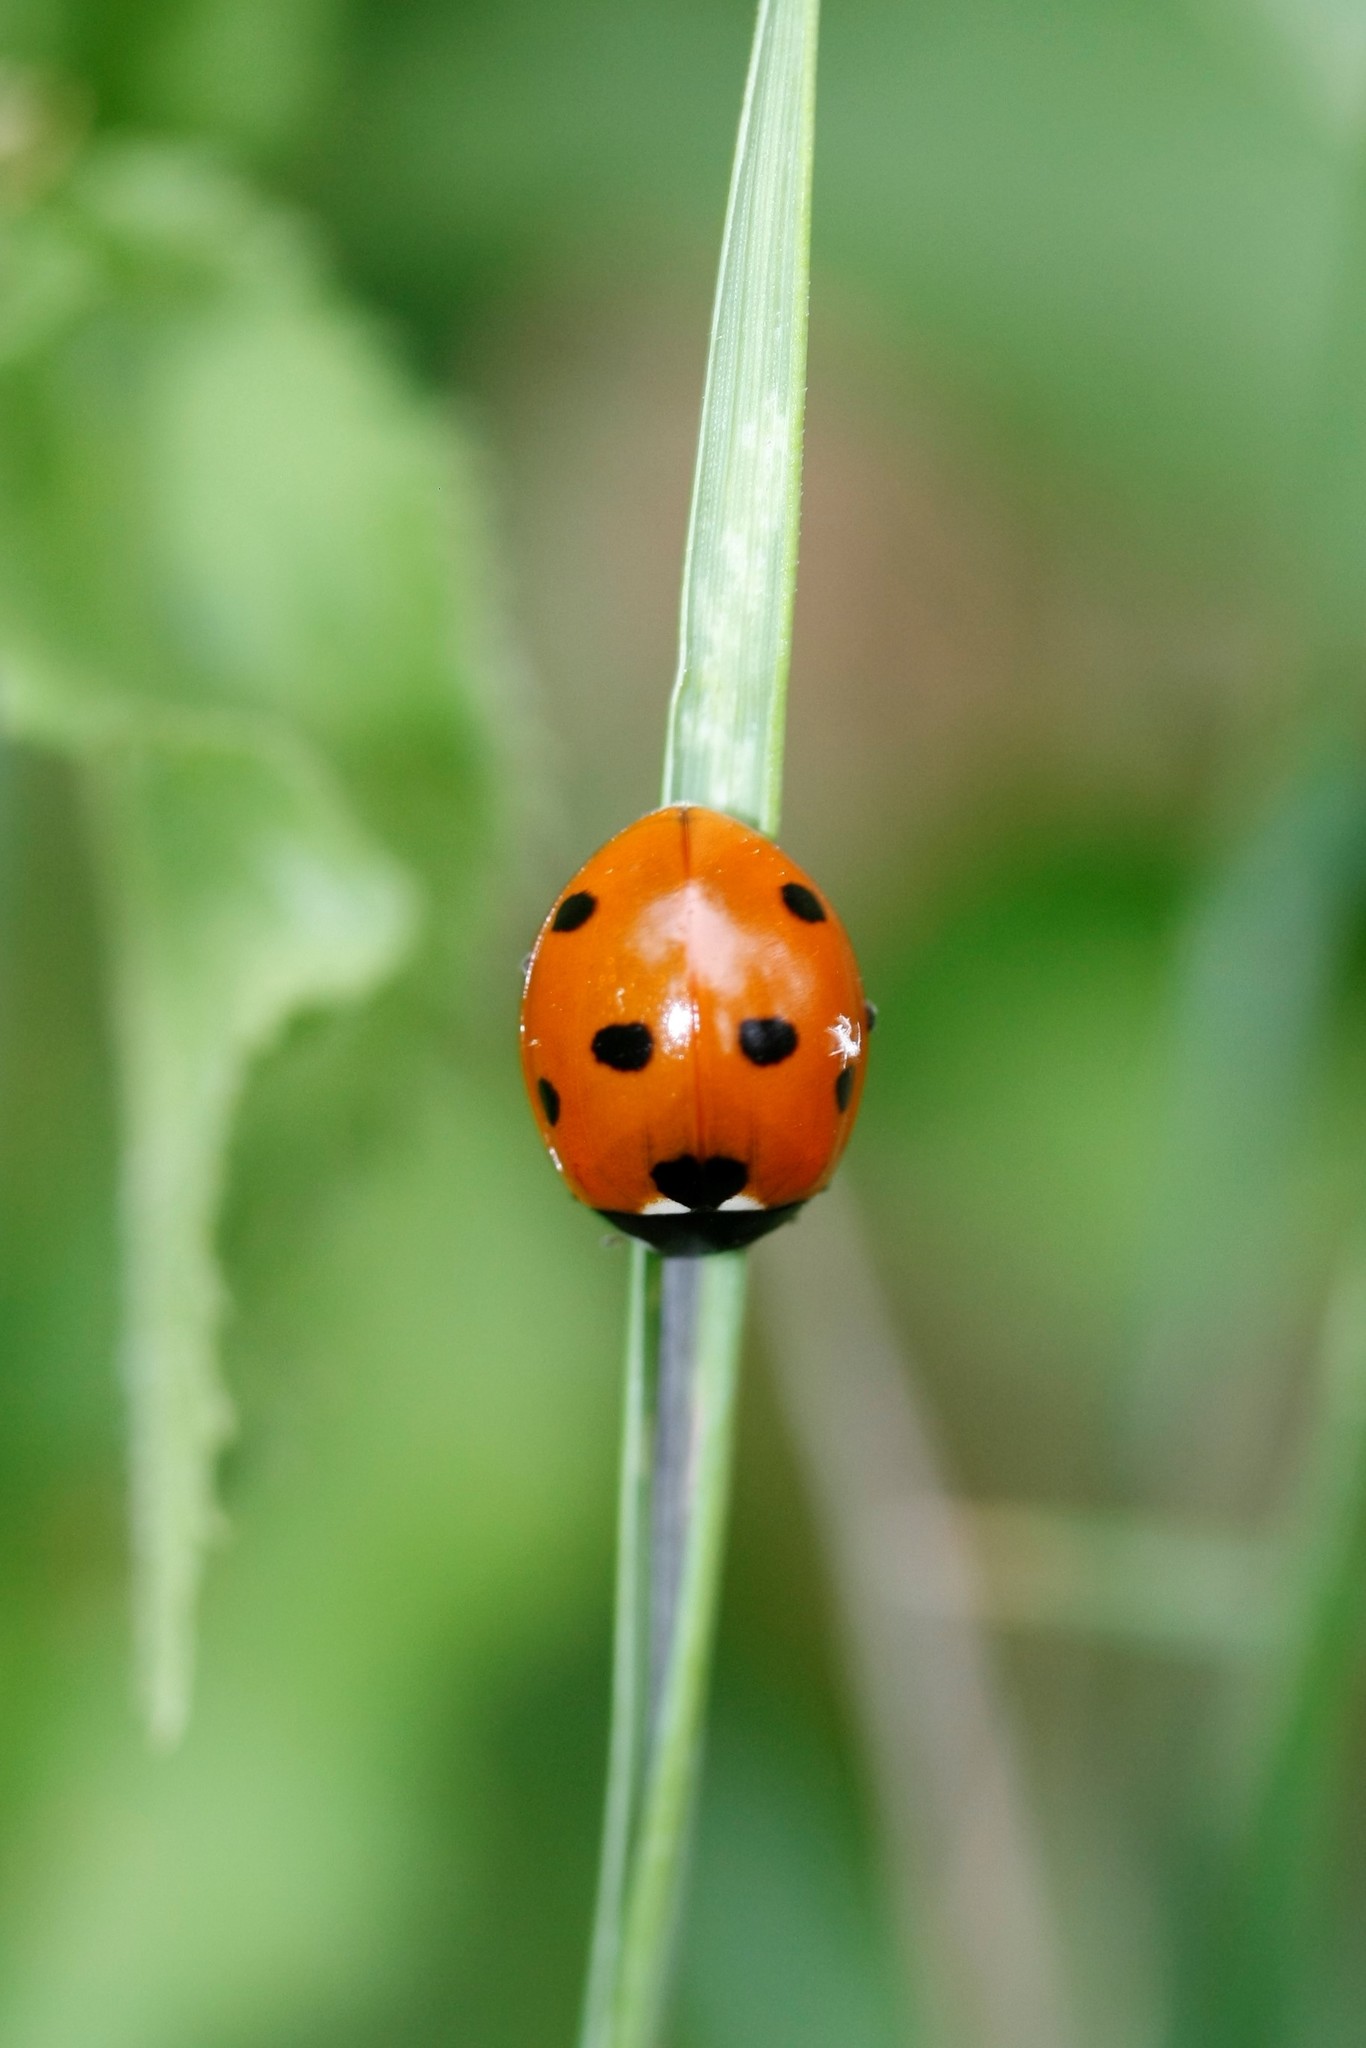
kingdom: Animalia
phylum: Arthropoda
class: Insecta
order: Coleoptera
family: Coccinellidae
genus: Coccinella
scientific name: Coccinella septempunctata
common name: Sevenspotted lady beetle
